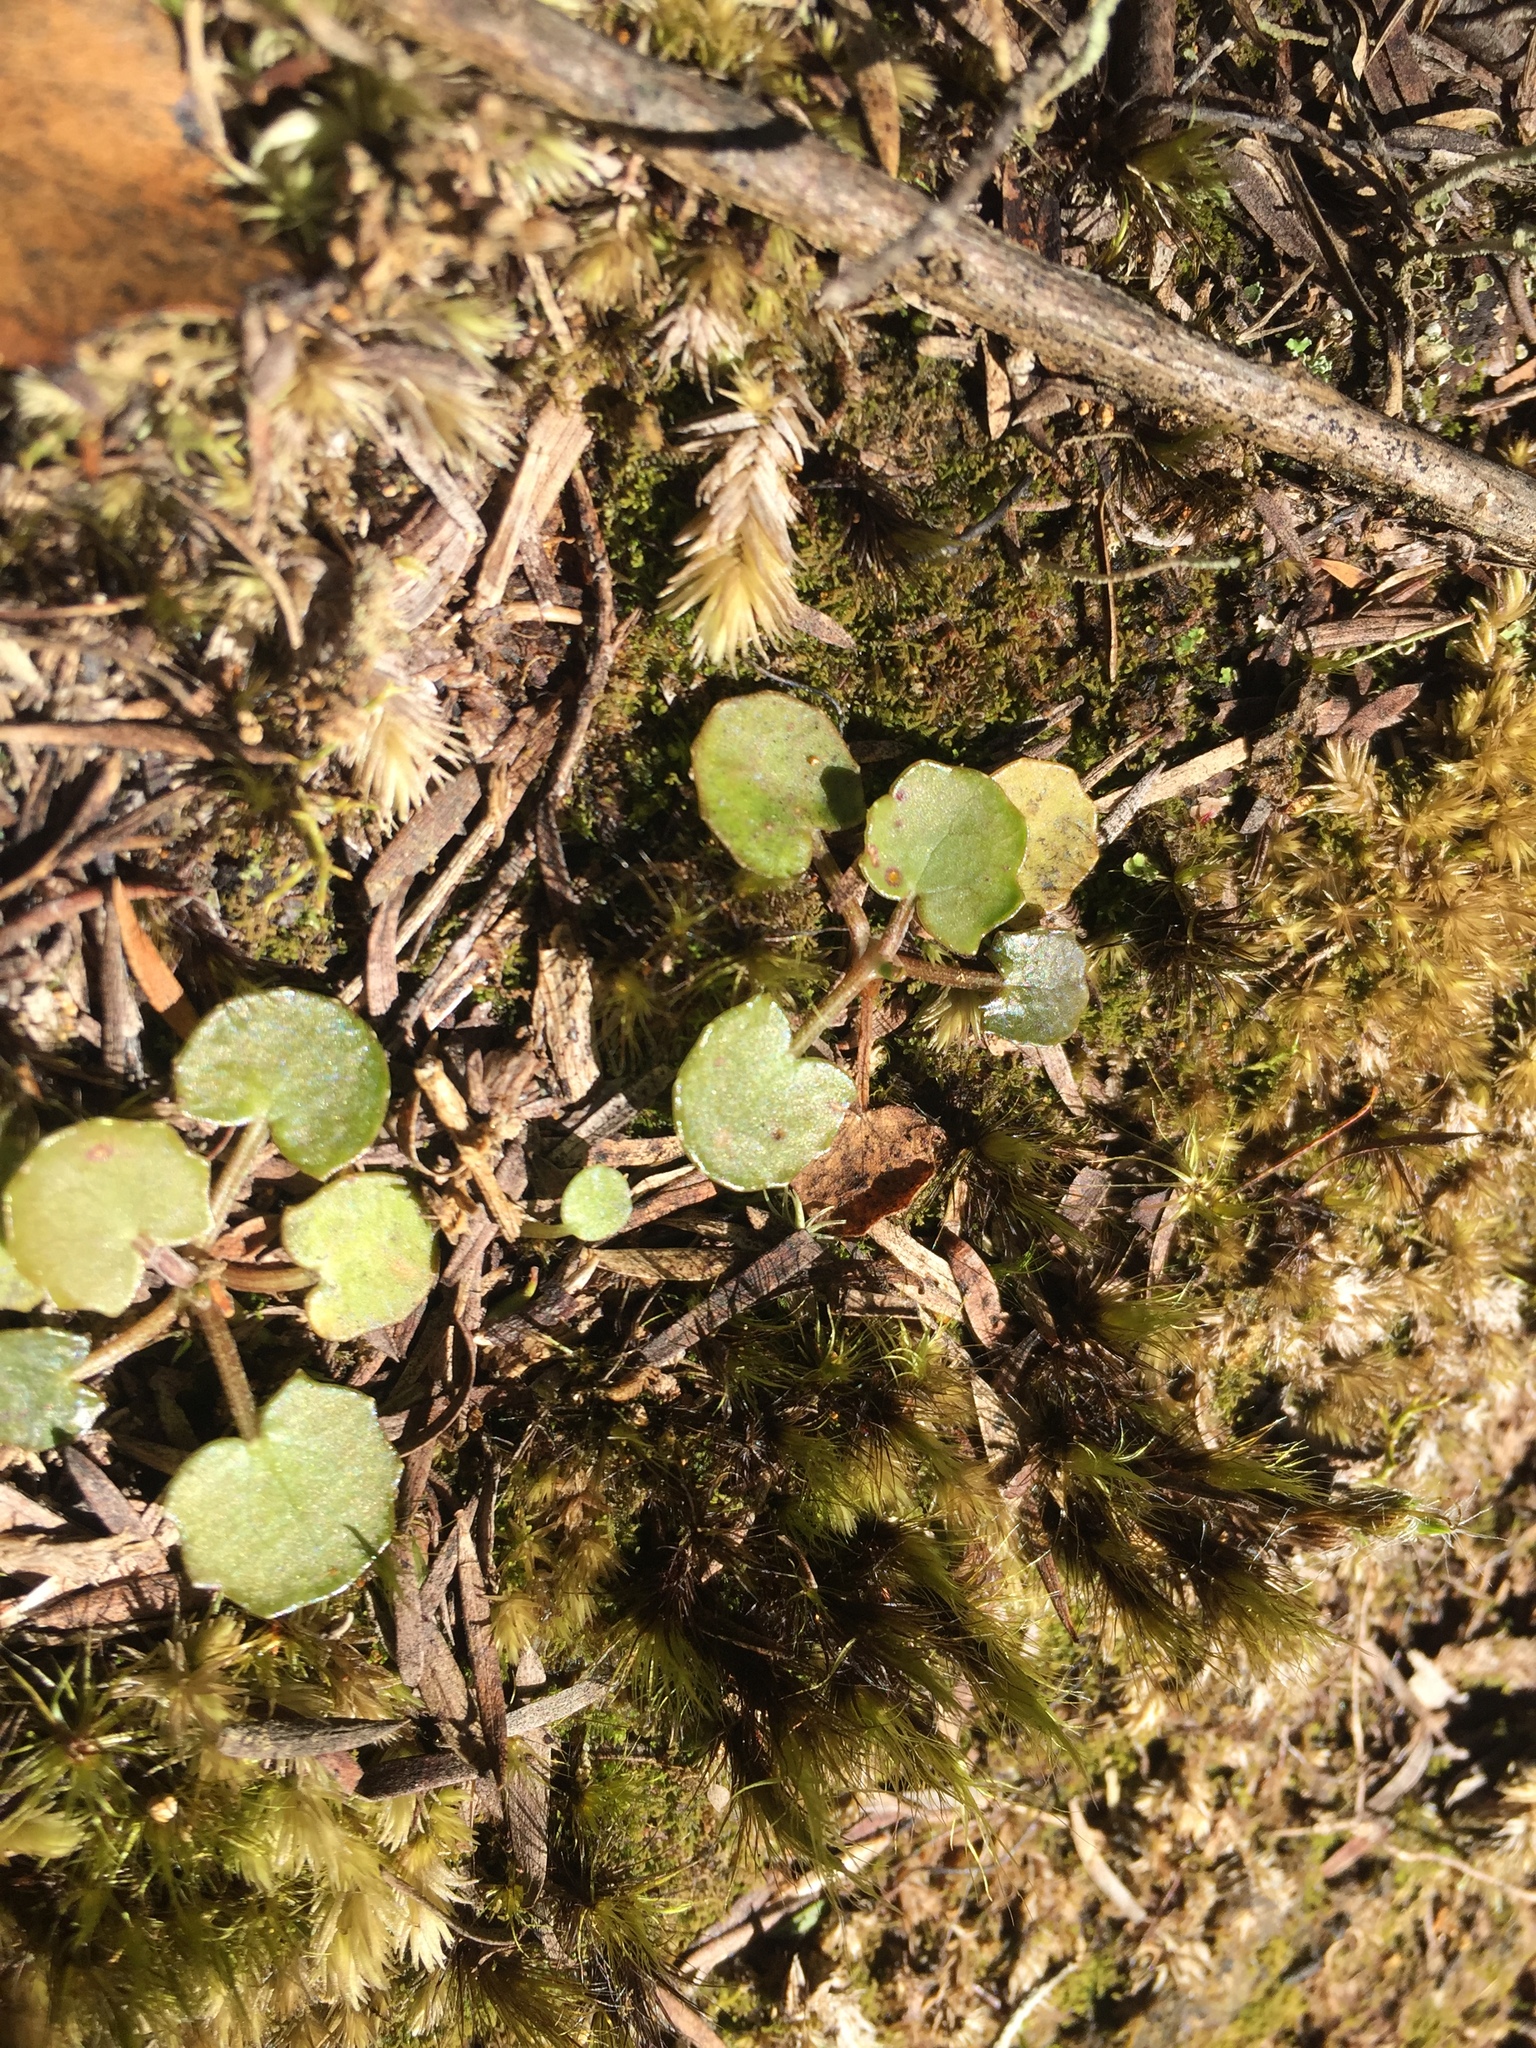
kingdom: Plantae
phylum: Tracheophyta
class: Magnoliopsida
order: Apiales
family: Apiaceae
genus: Centella
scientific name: Centella uniflora
